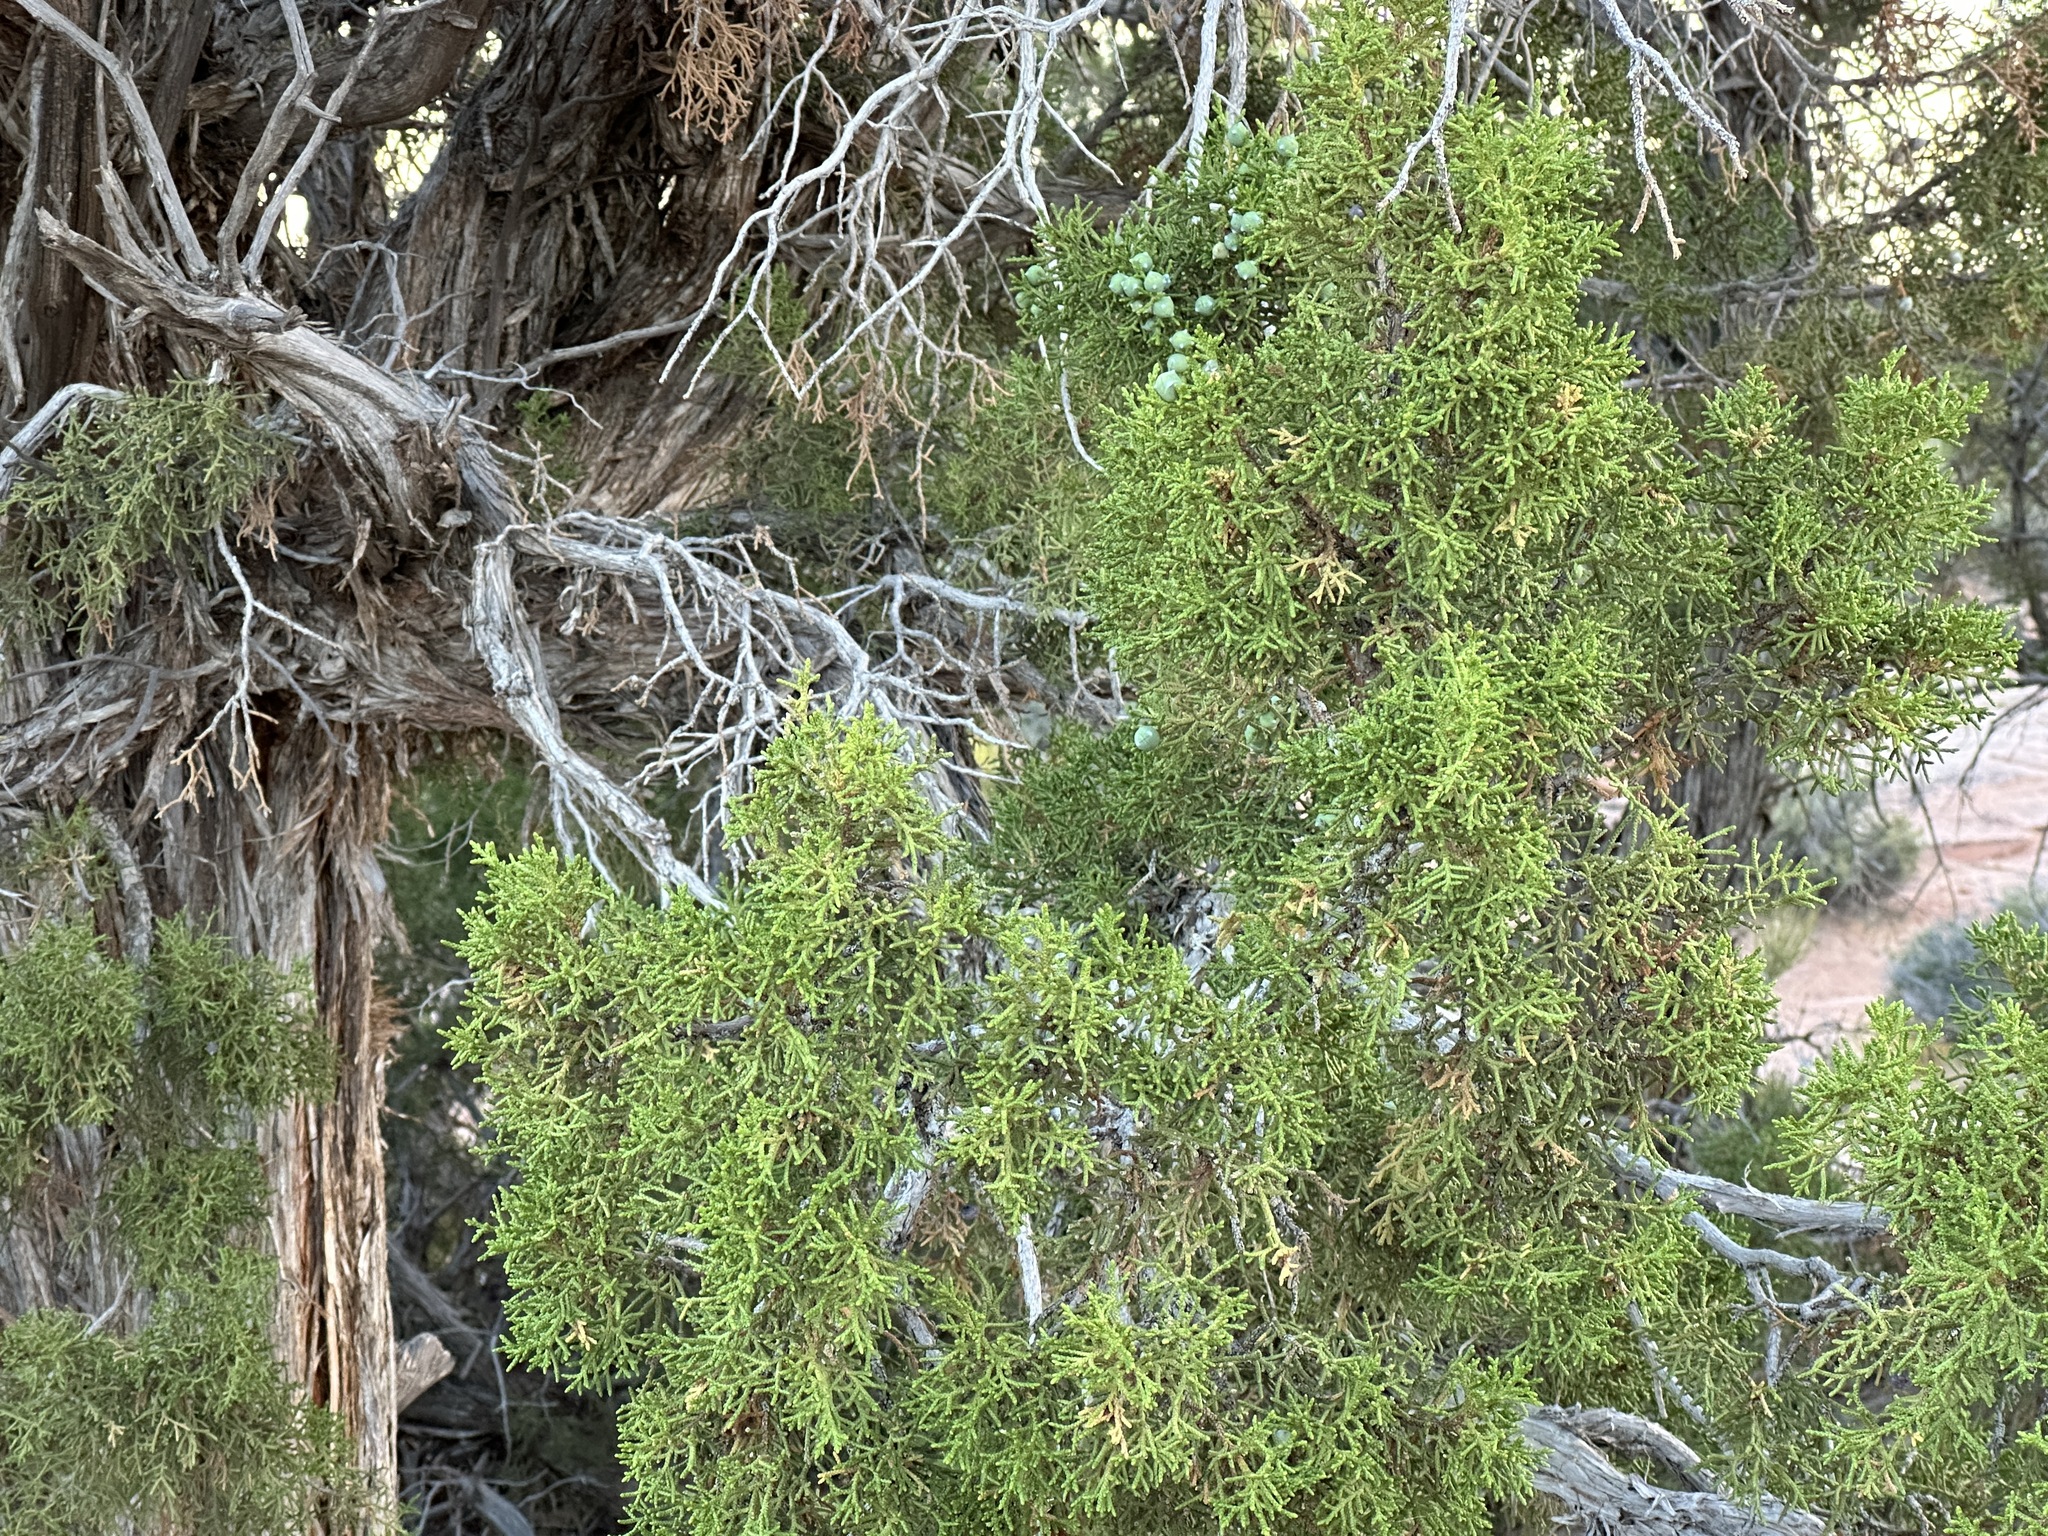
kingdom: Plantae
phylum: Tracheophyta
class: Pinopsida
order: Pinales
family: Cupressaceae
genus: Juniperus
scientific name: Juniperus osteosperma
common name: Utah juniper
